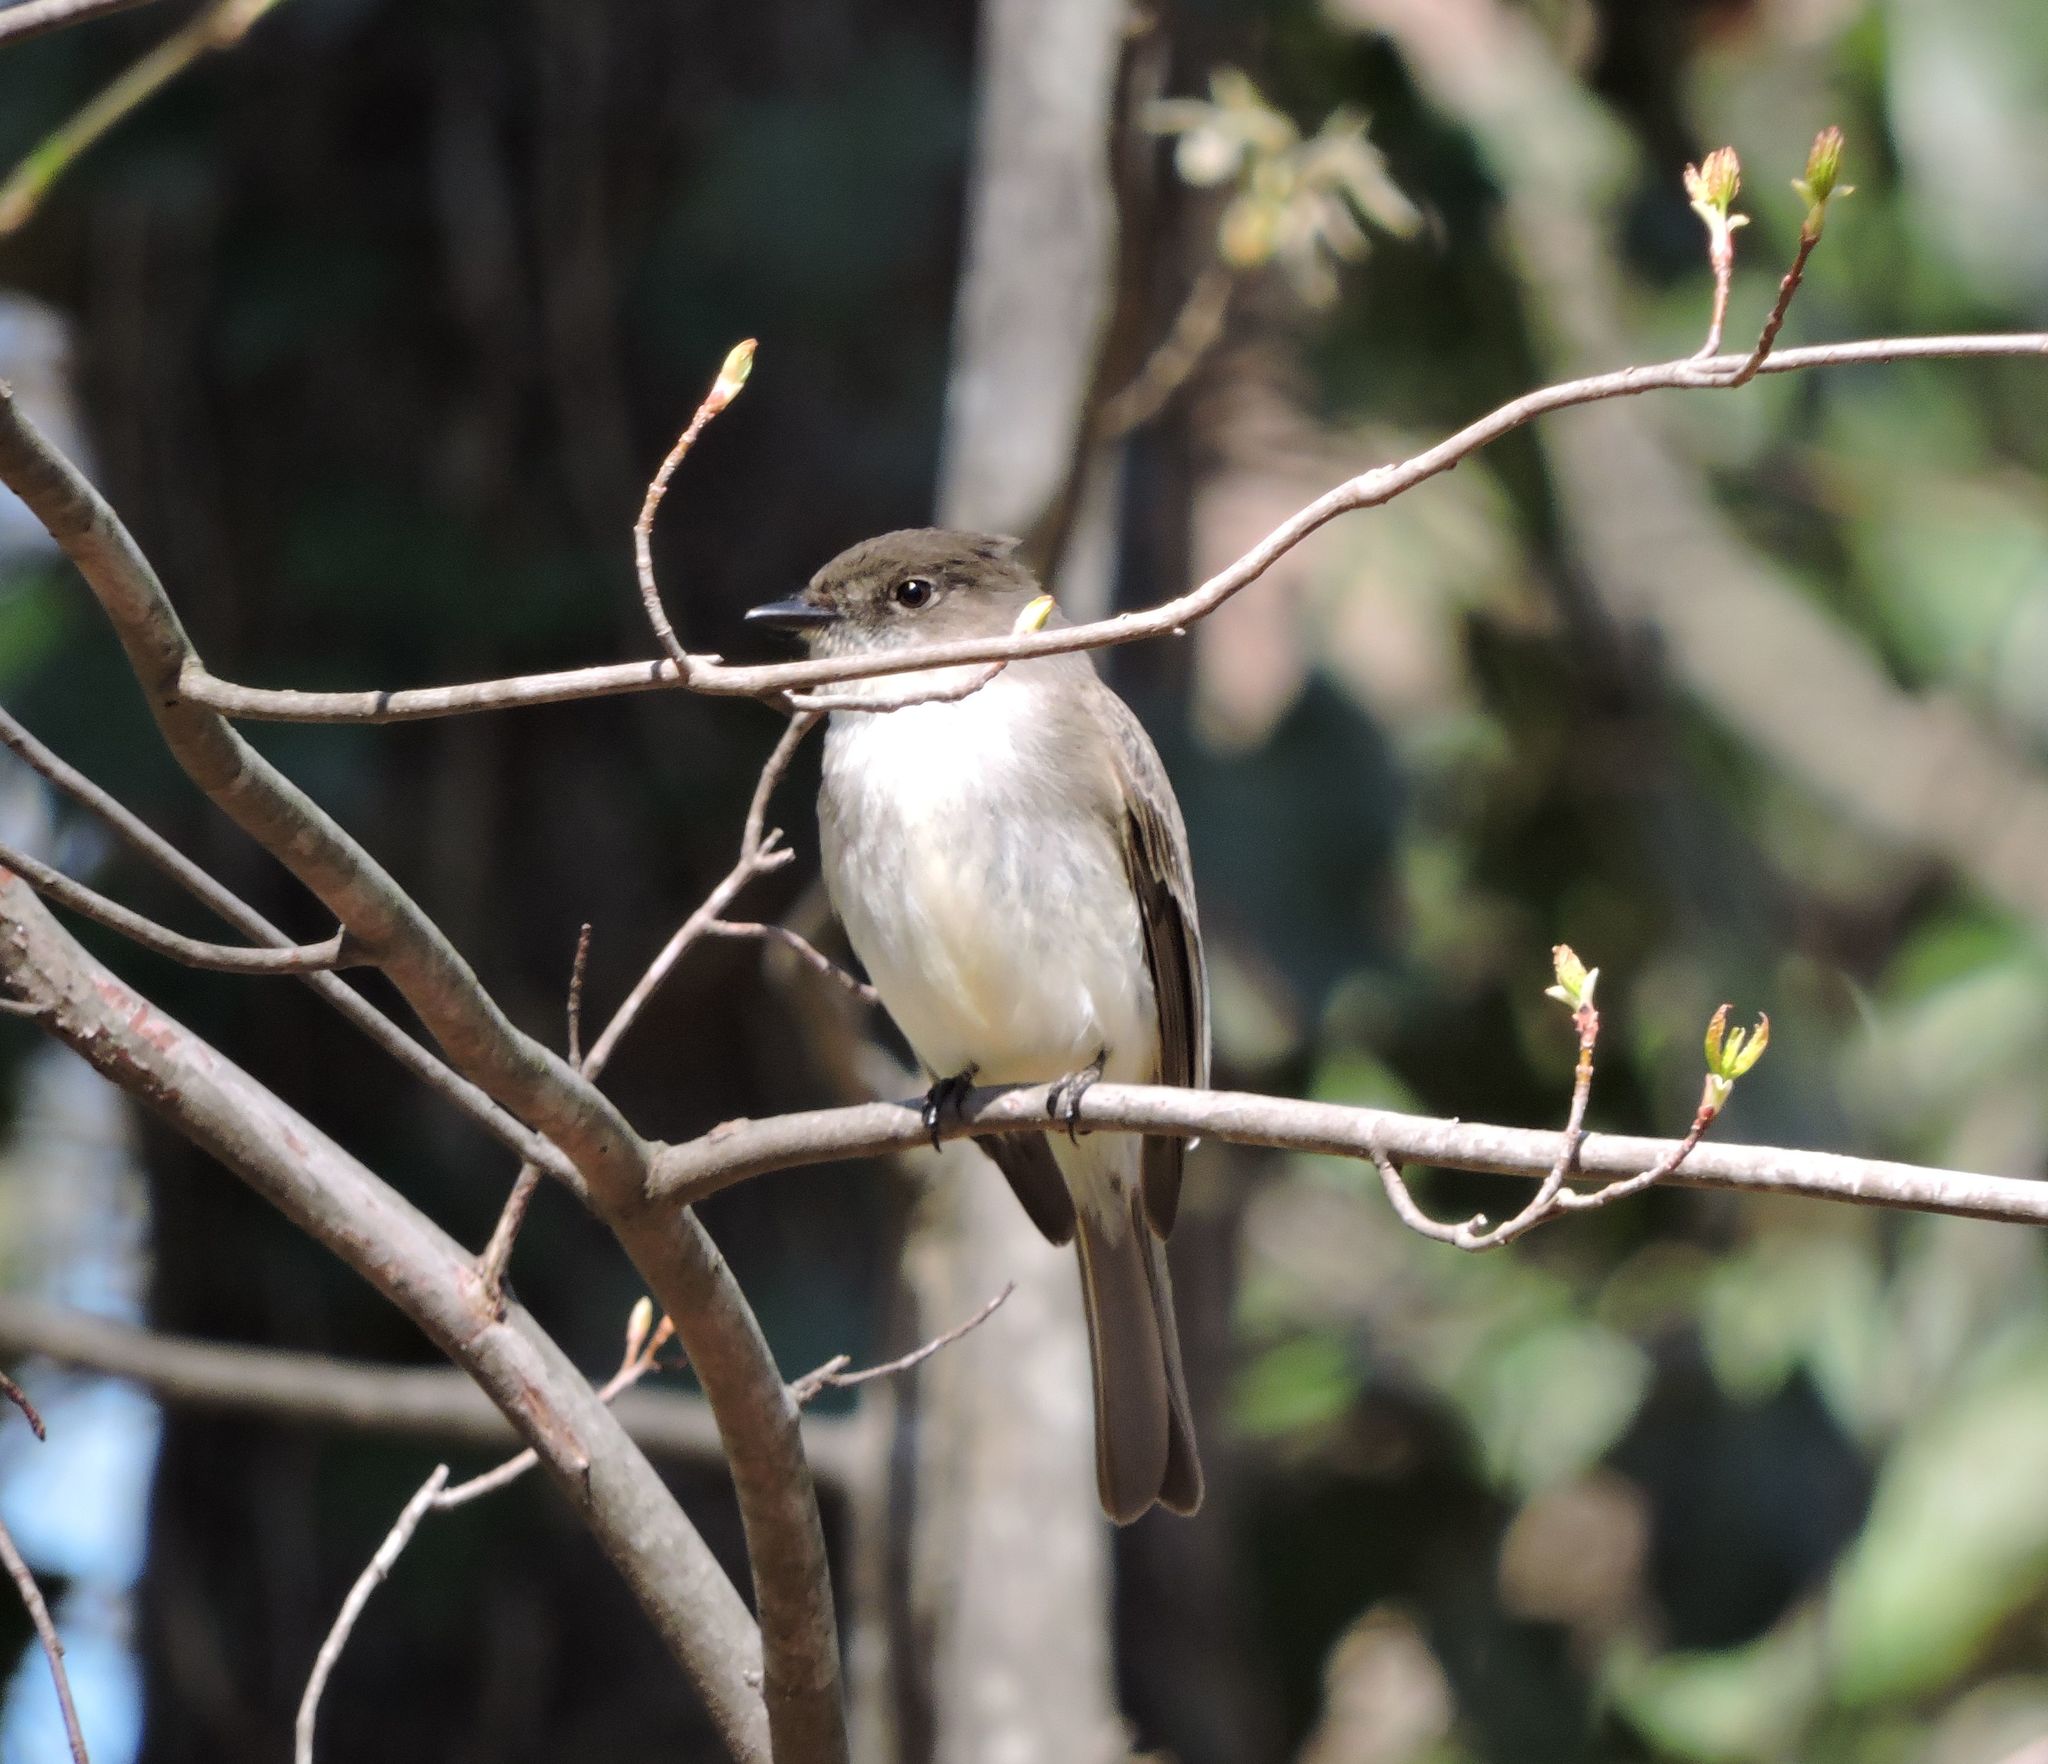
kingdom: Animalia
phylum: Chordata
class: Aves
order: Passeriformes
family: Tyrannidae
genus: Sayornis
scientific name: Sayornis phoebe
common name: Eastern phoebe
